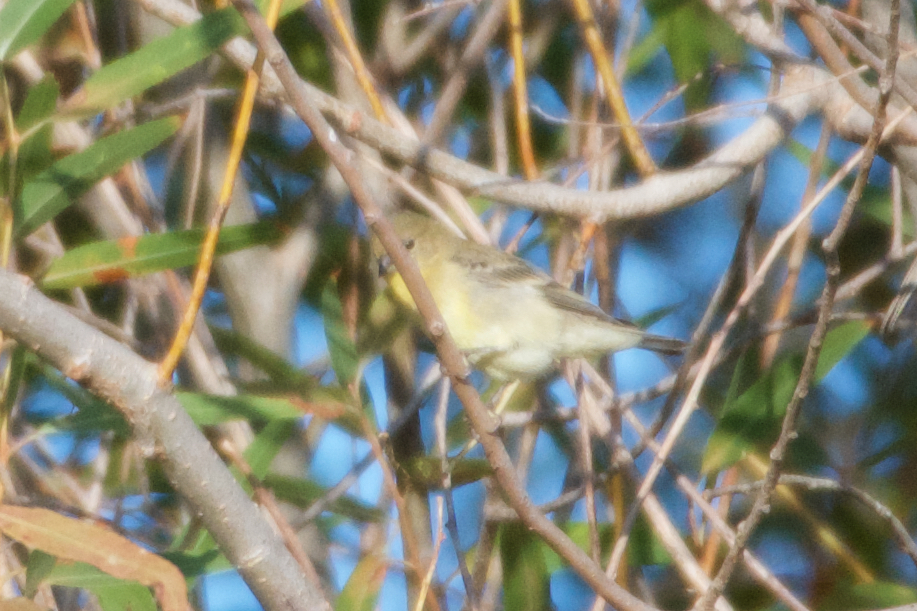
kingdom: Animalia
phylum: Chordata
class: Aves
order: Passeriformes
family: Fringillidae
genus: Spinus
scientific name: Spinus tristis
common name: American goldfinch
